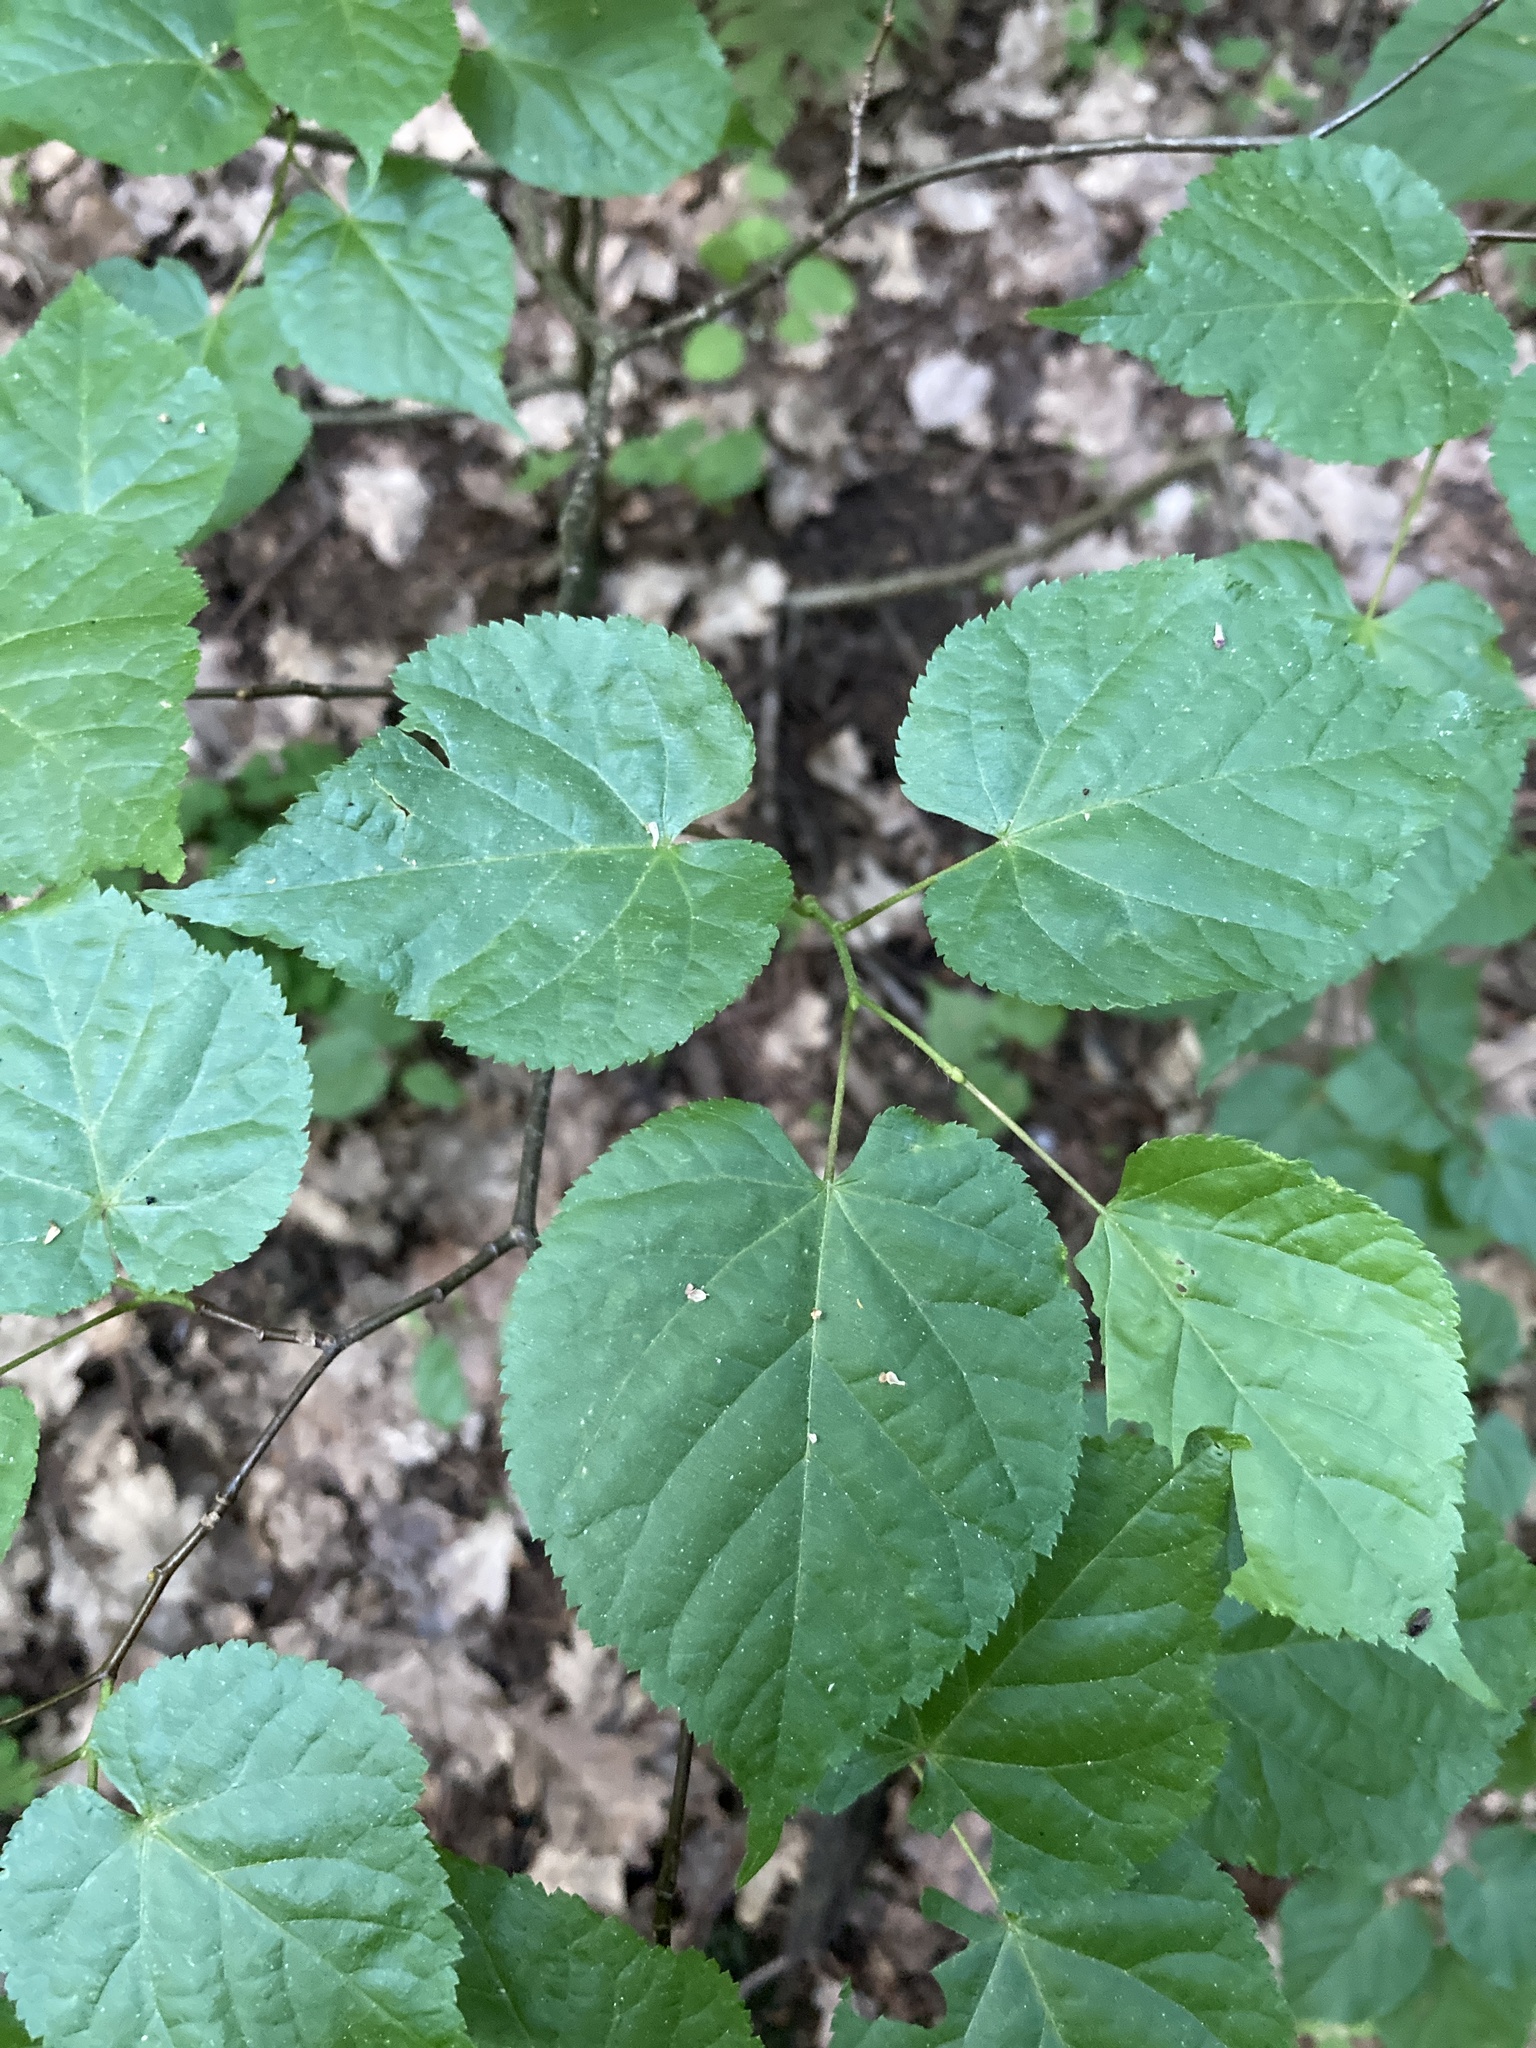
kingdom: Plantae
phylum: Tracheophyta
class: Magnoliopsida
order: Malvales
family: Malvaceae
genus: Tilia
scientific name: Tilia cordata
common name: Small-leaved lime
